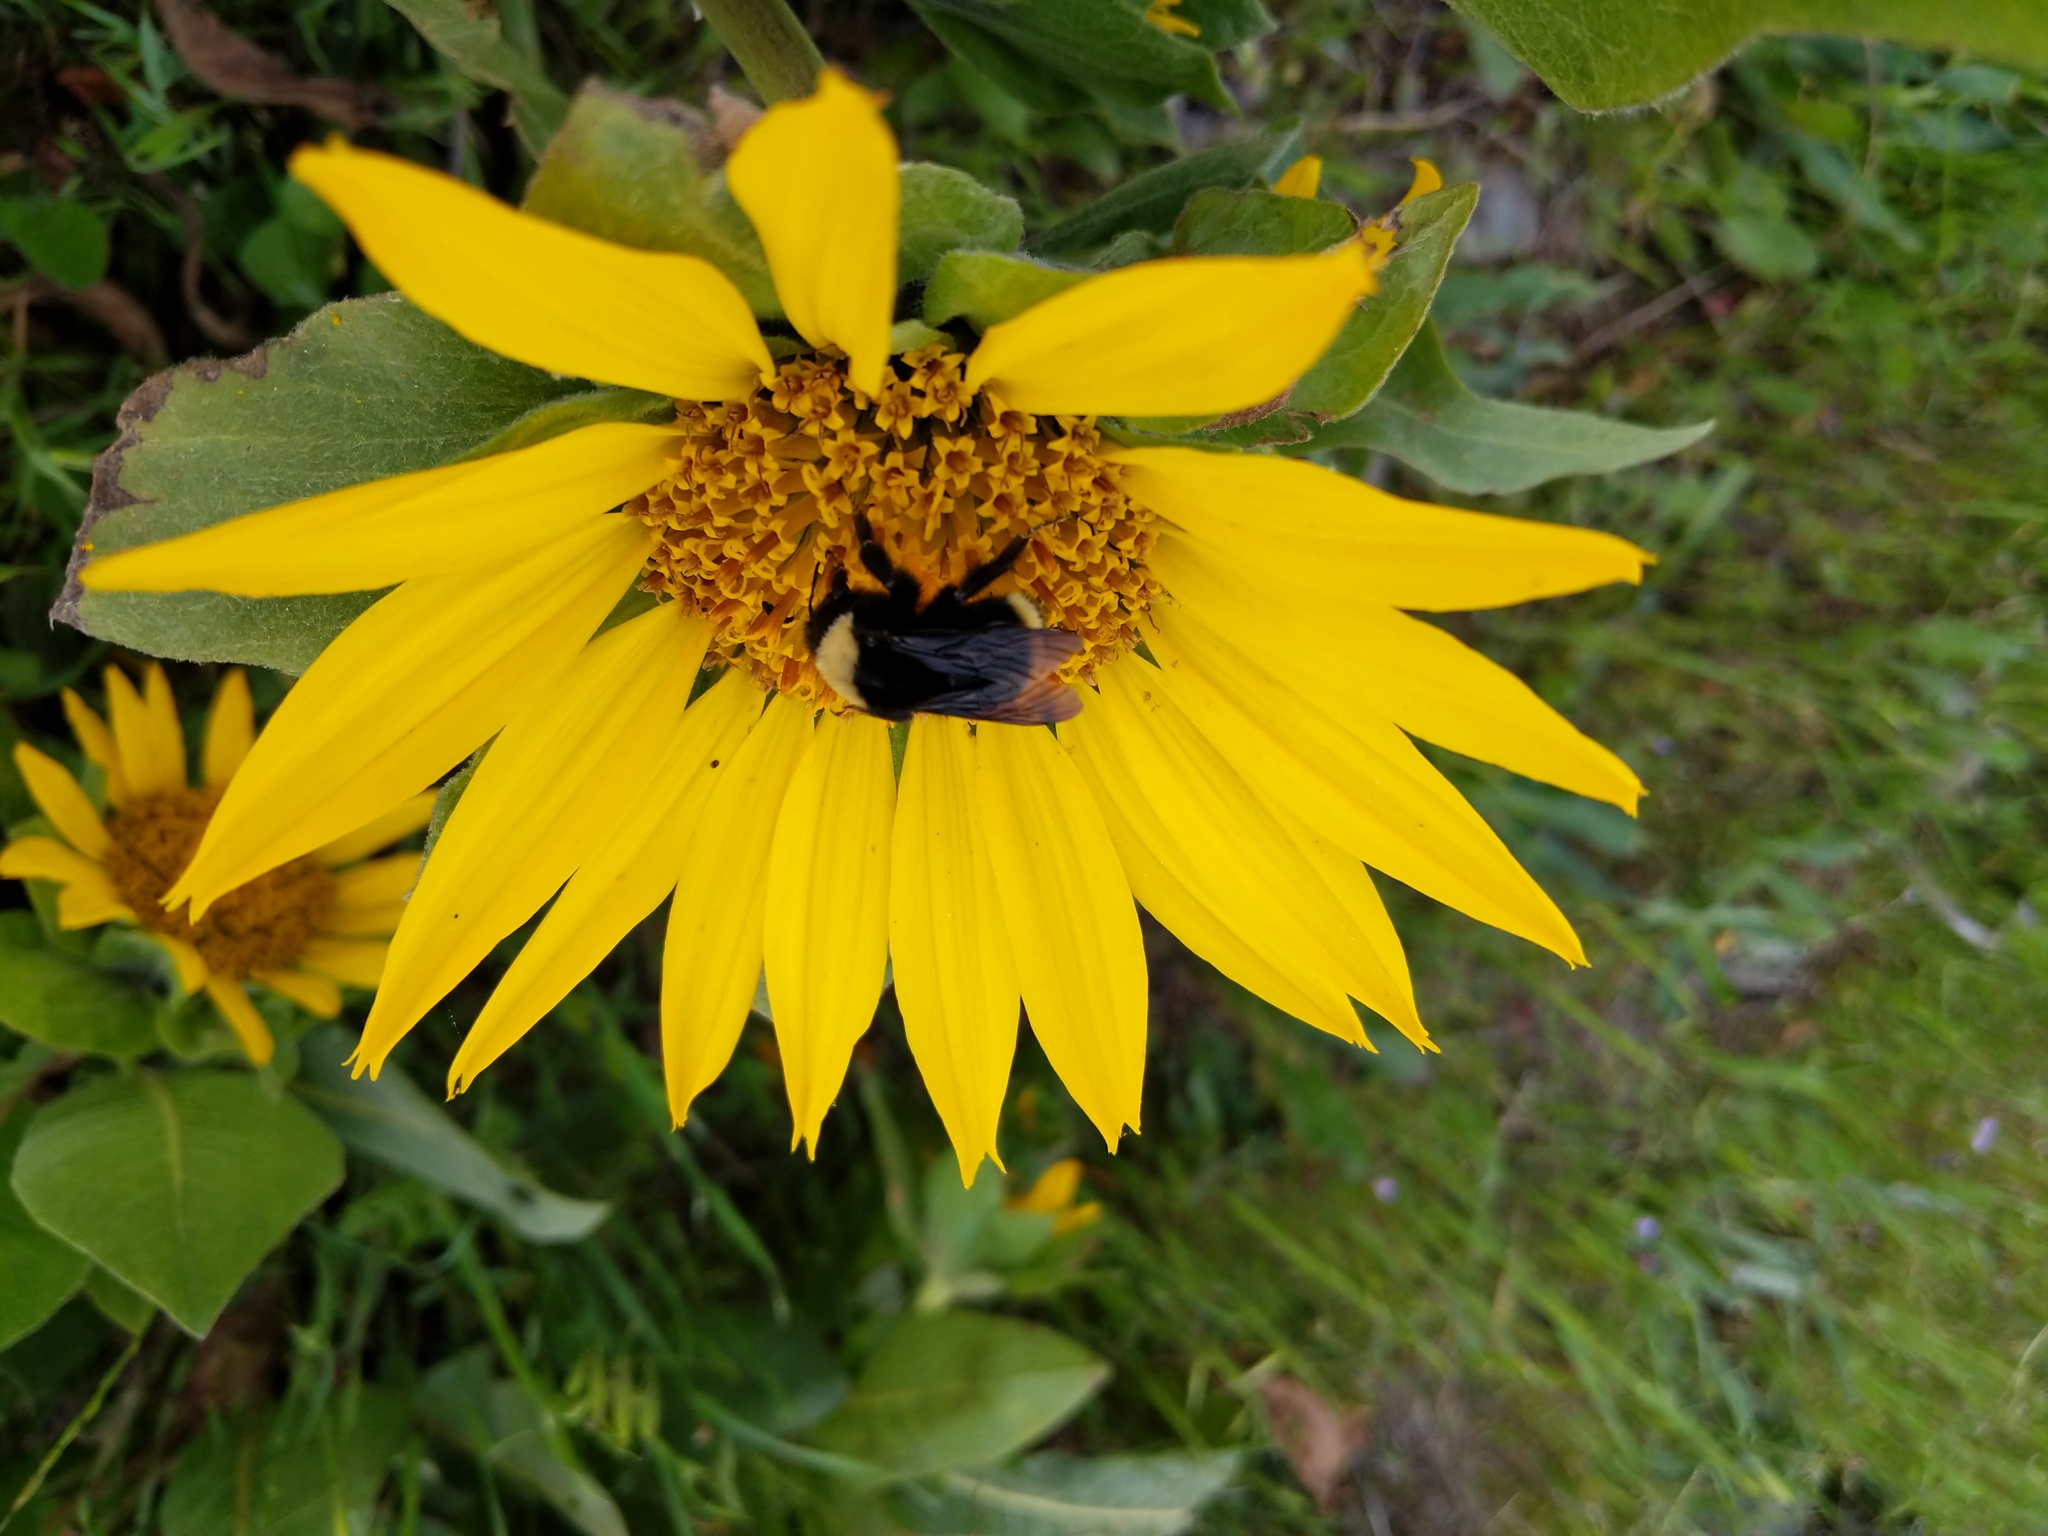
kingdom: Plantae
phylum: Tracheophyta
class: Magnoliopsida
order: Asterales
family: Asteraceae
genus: Wyethia
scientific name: Wyethia glabra
